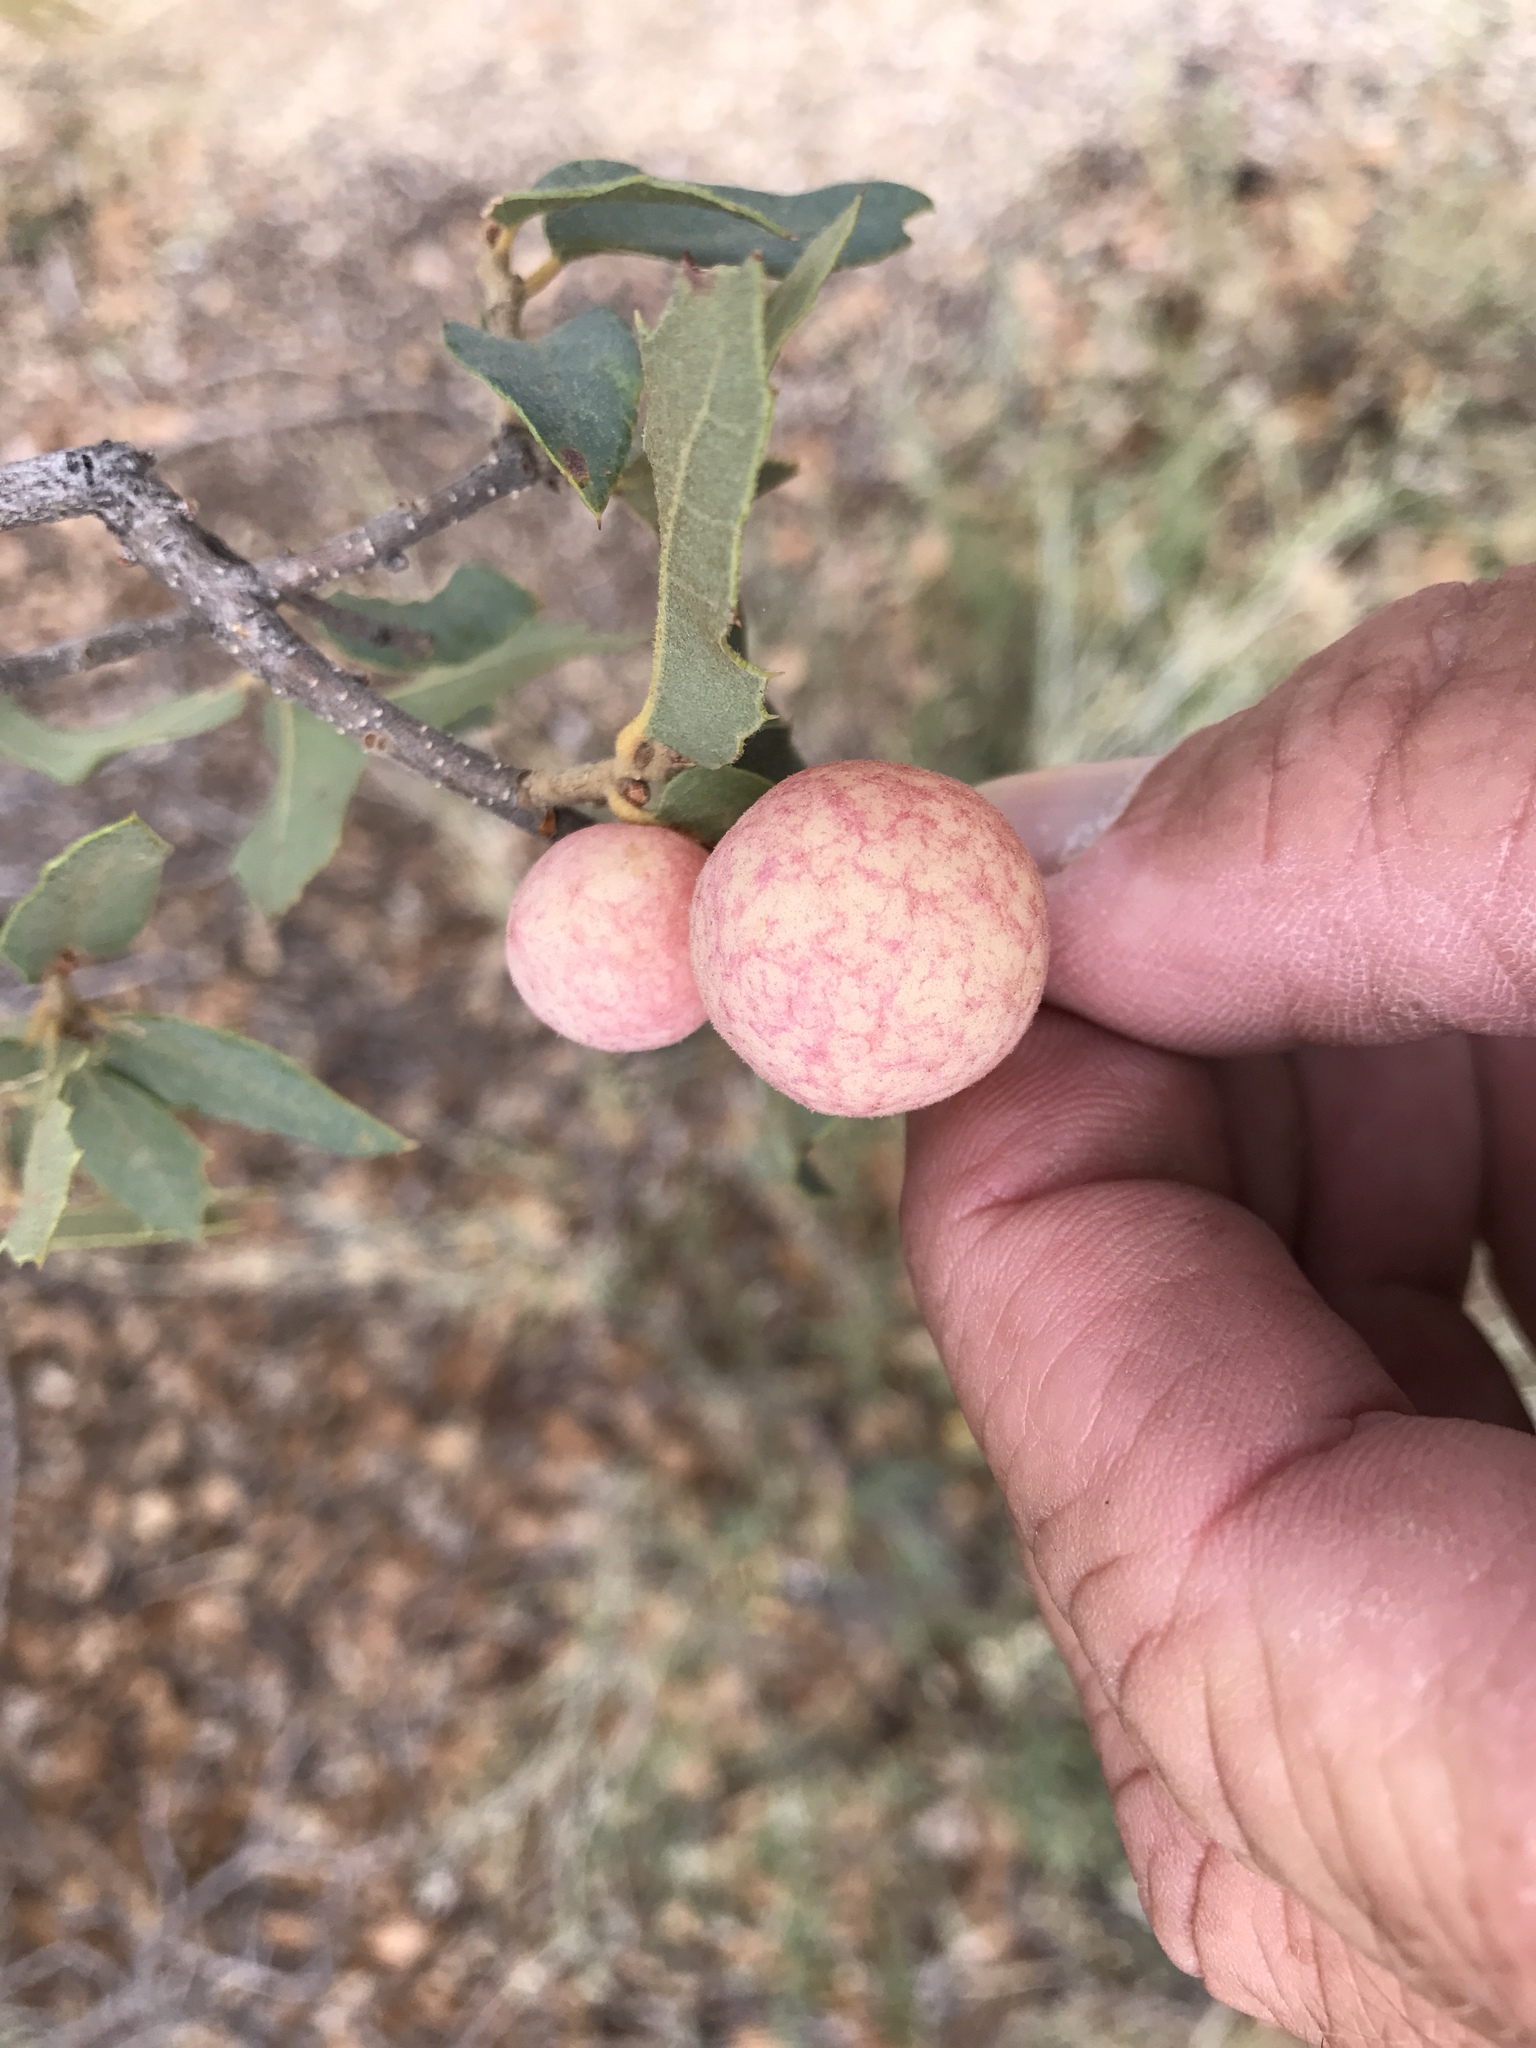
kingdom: Animalia
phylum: Arthropoda
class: Insecta
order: Hymenoptera
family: Cynipidae
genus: Atrusca
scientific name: Atrusca
